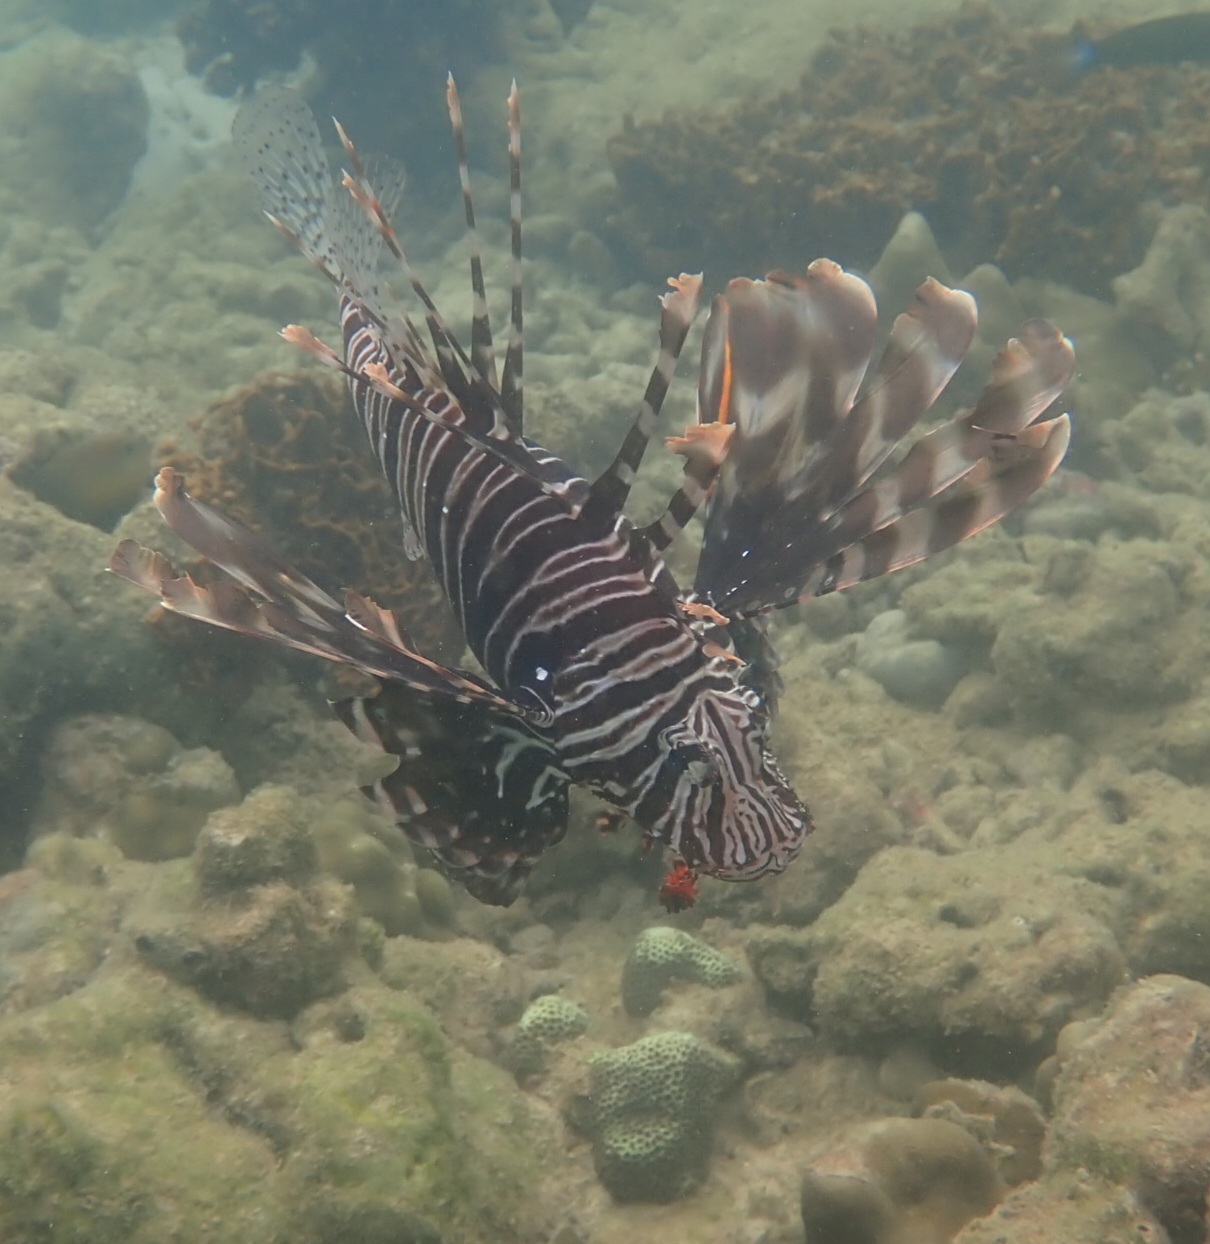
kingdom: Animalia
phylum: Chordata
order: Scorpaeniformes
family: Scorpaenidae
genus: Pterois
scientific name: Pterois miles
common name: Devil firefish
